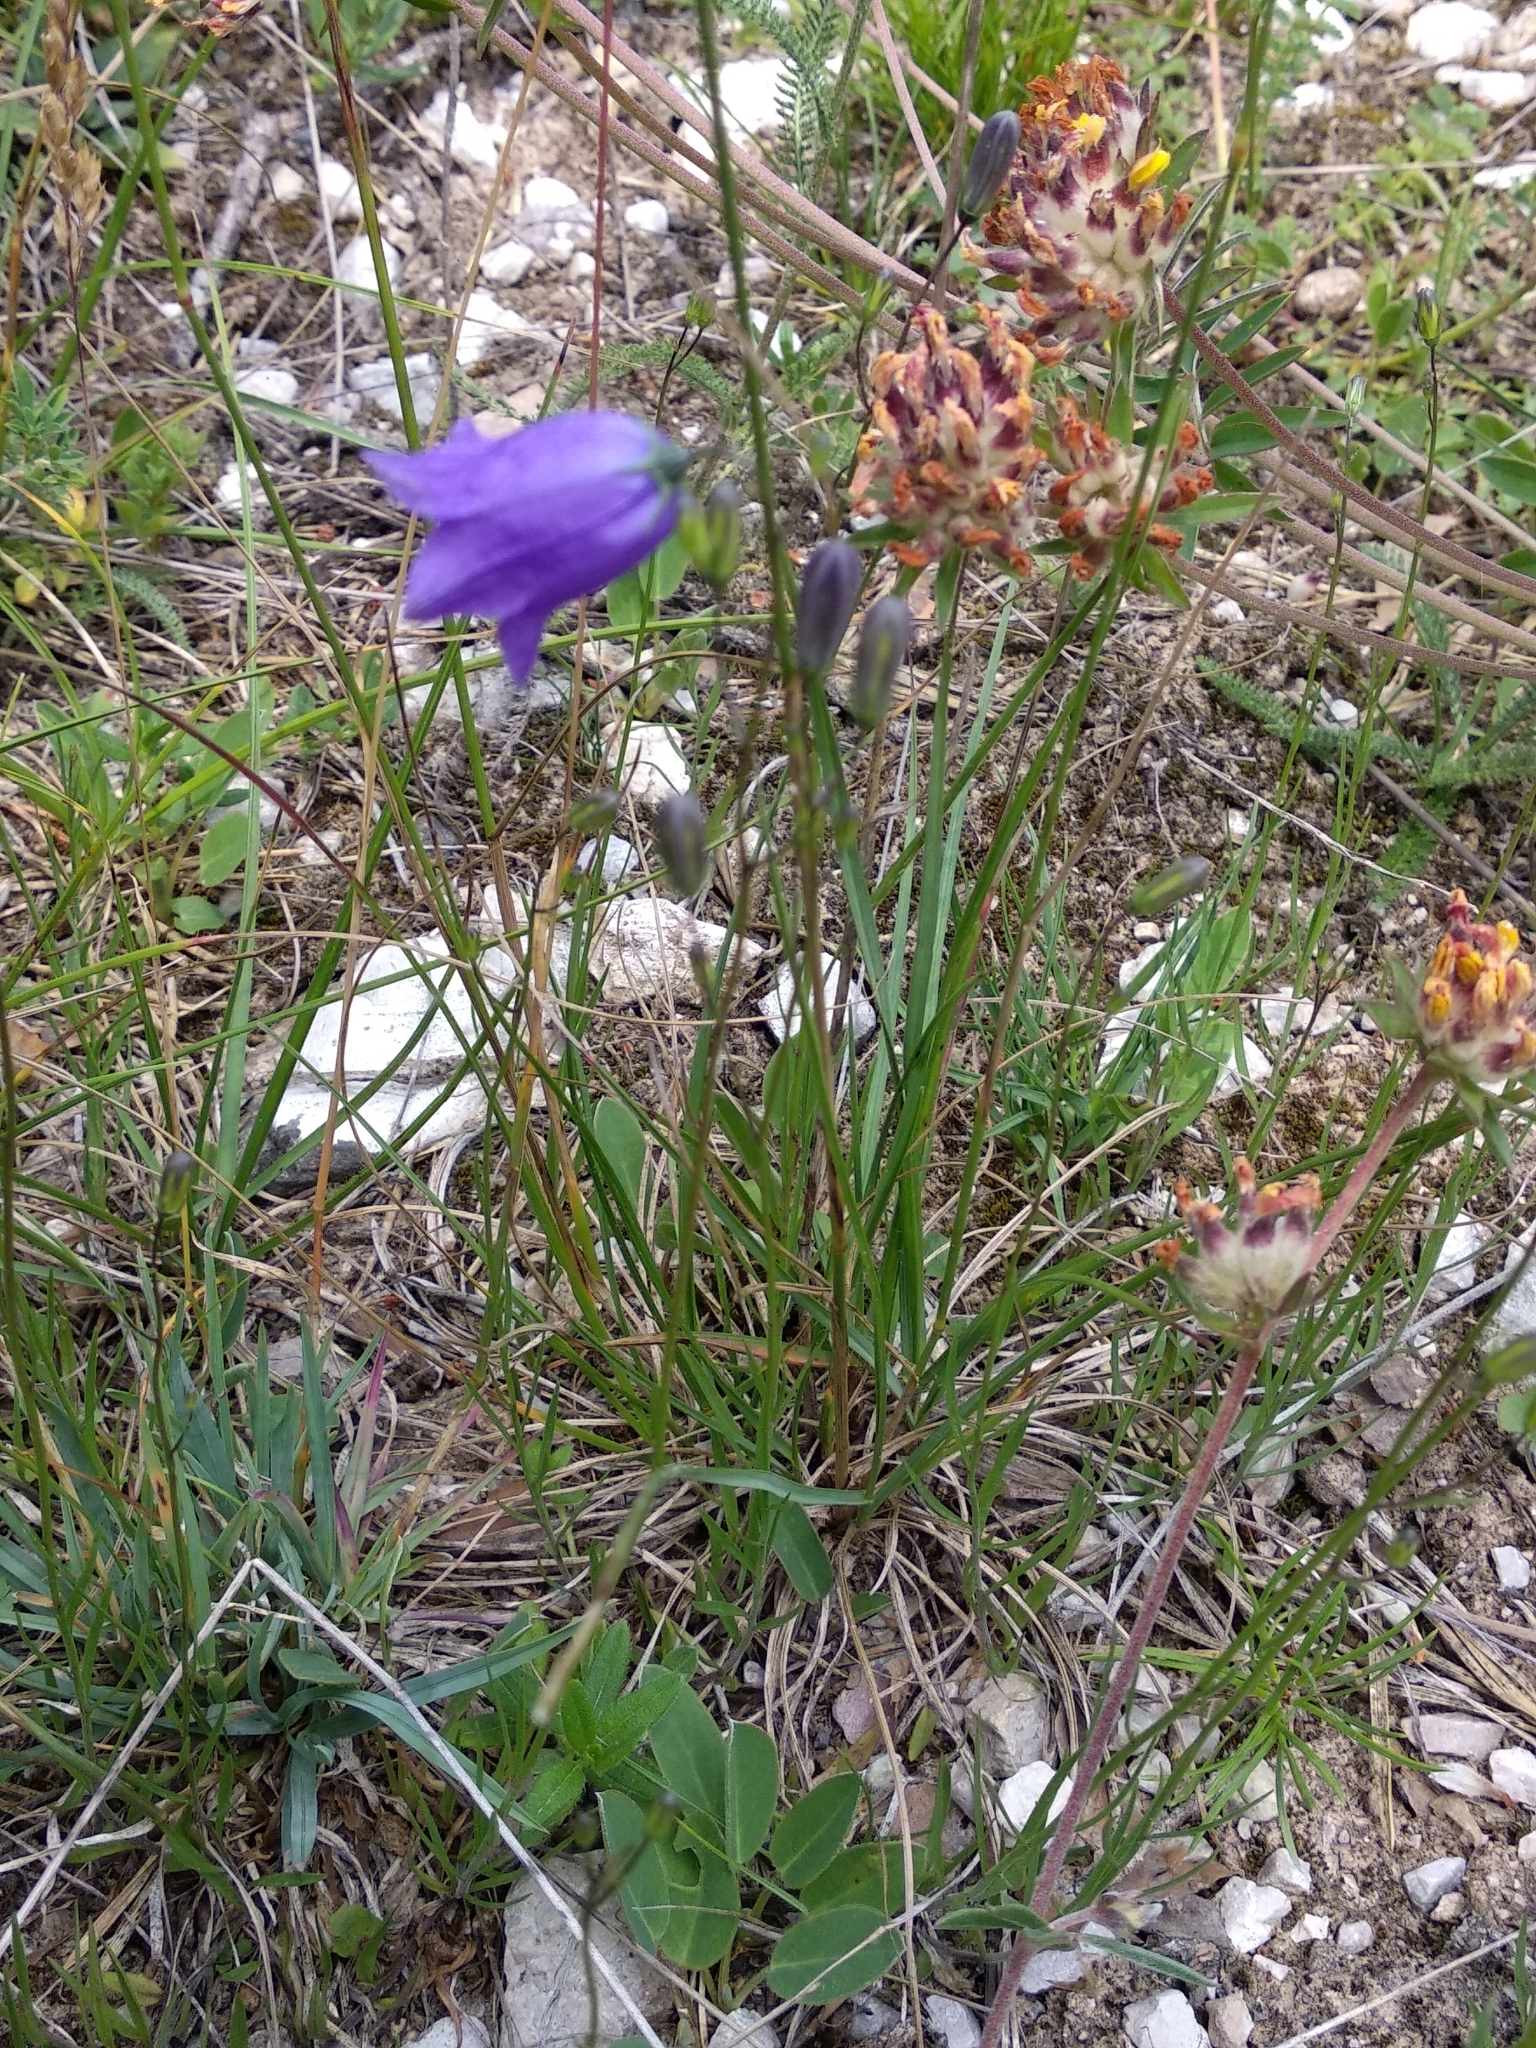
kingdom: Plantae
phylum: Tracheophyta
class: Magnoliopsida
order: Asterales
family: Campanulaceae
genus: Campanula
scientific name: Campanula rotundifolia
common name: Harebell
